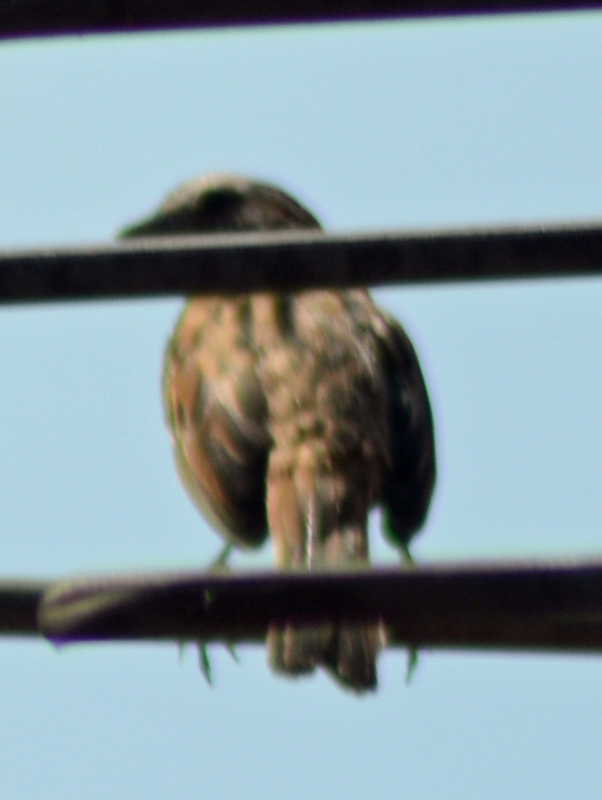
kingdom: Animalia
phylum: Chordata
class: Aves
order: Passeriformes
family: Passerellidae
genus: Melospiza
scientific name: Melospiza melodia
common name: Song sparrow
